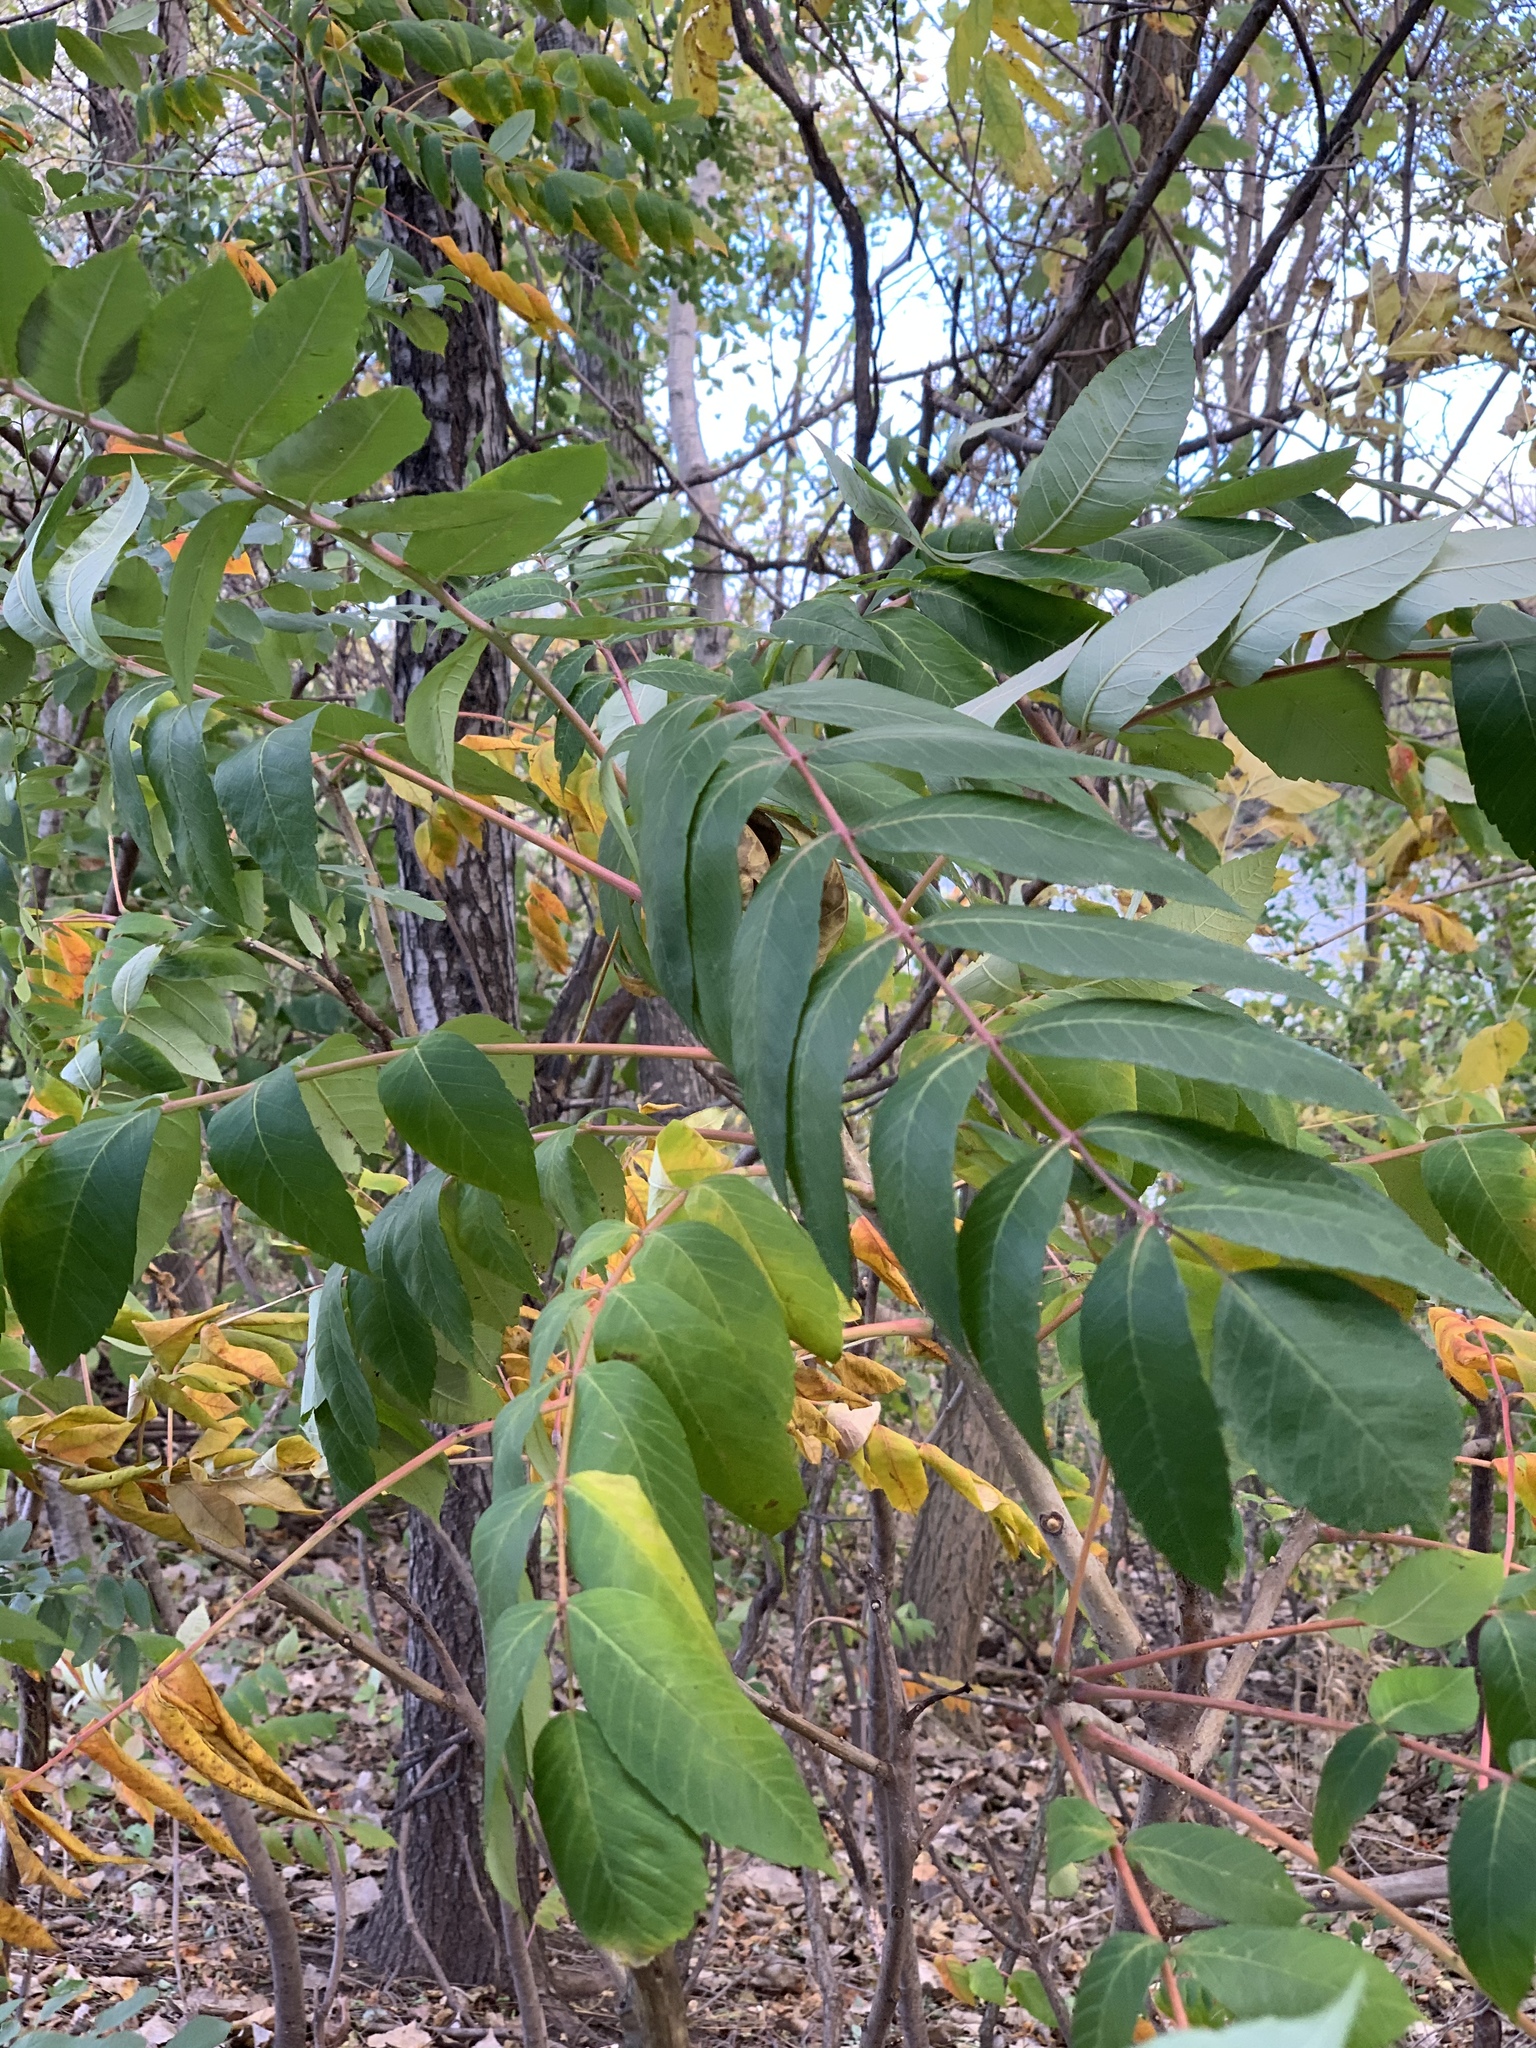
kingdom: Plantae
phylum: Tracheophyta
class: Magnoliopsida
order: Sapindales
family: Anacardiaceae
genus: Rhus
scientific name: Rhus glabra
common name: Scarlet sumac
